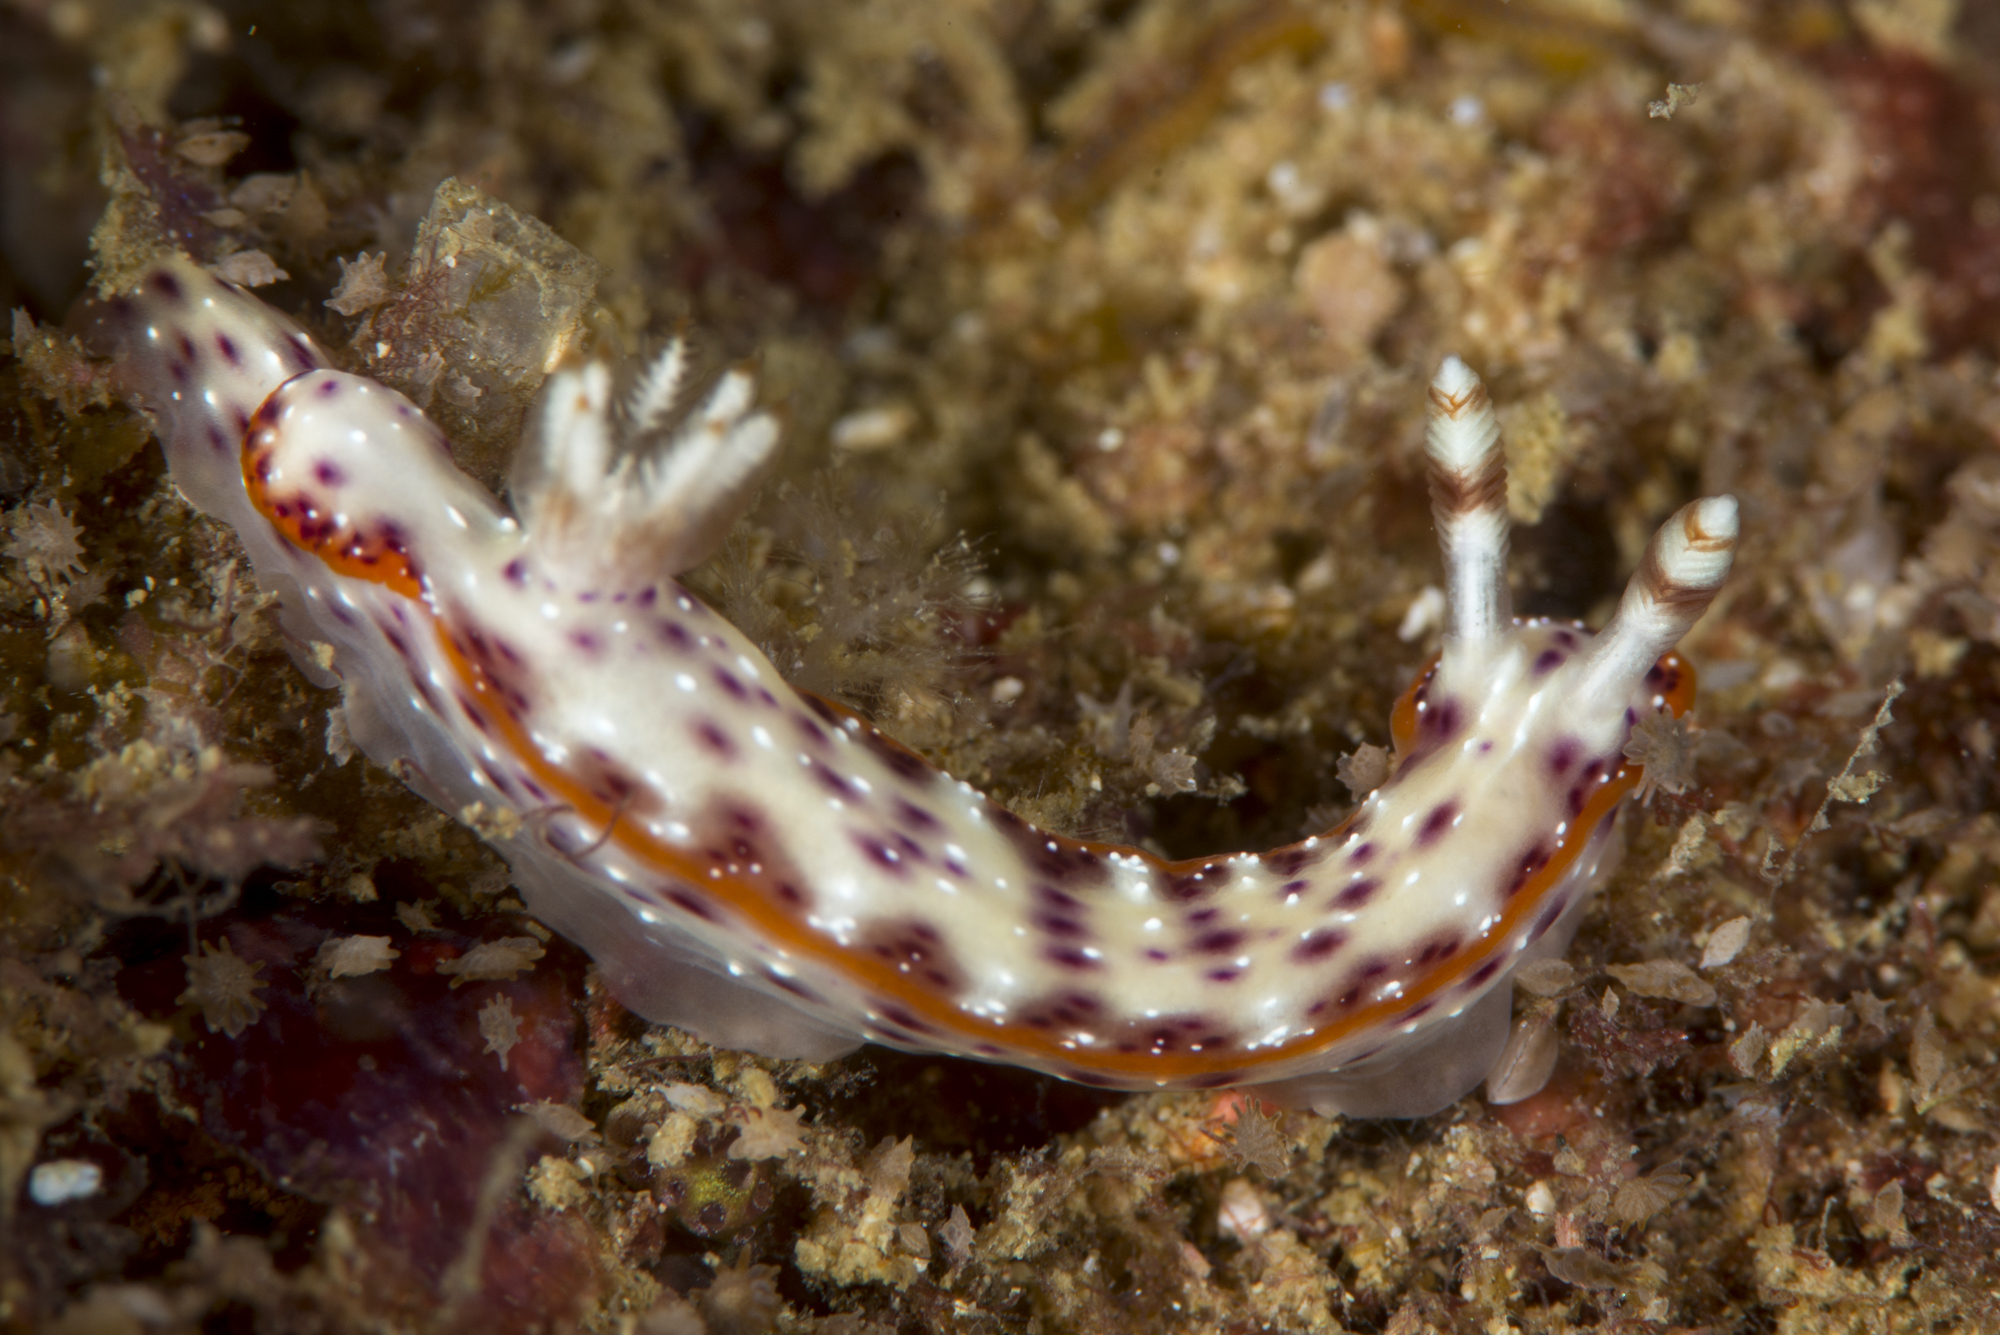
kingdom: Animalia
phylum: Mollusca
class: Gastropoda
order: Nudibranchia
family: Chromodorididae
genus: Hypselodoris
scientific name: Hypselodoris juniperae
